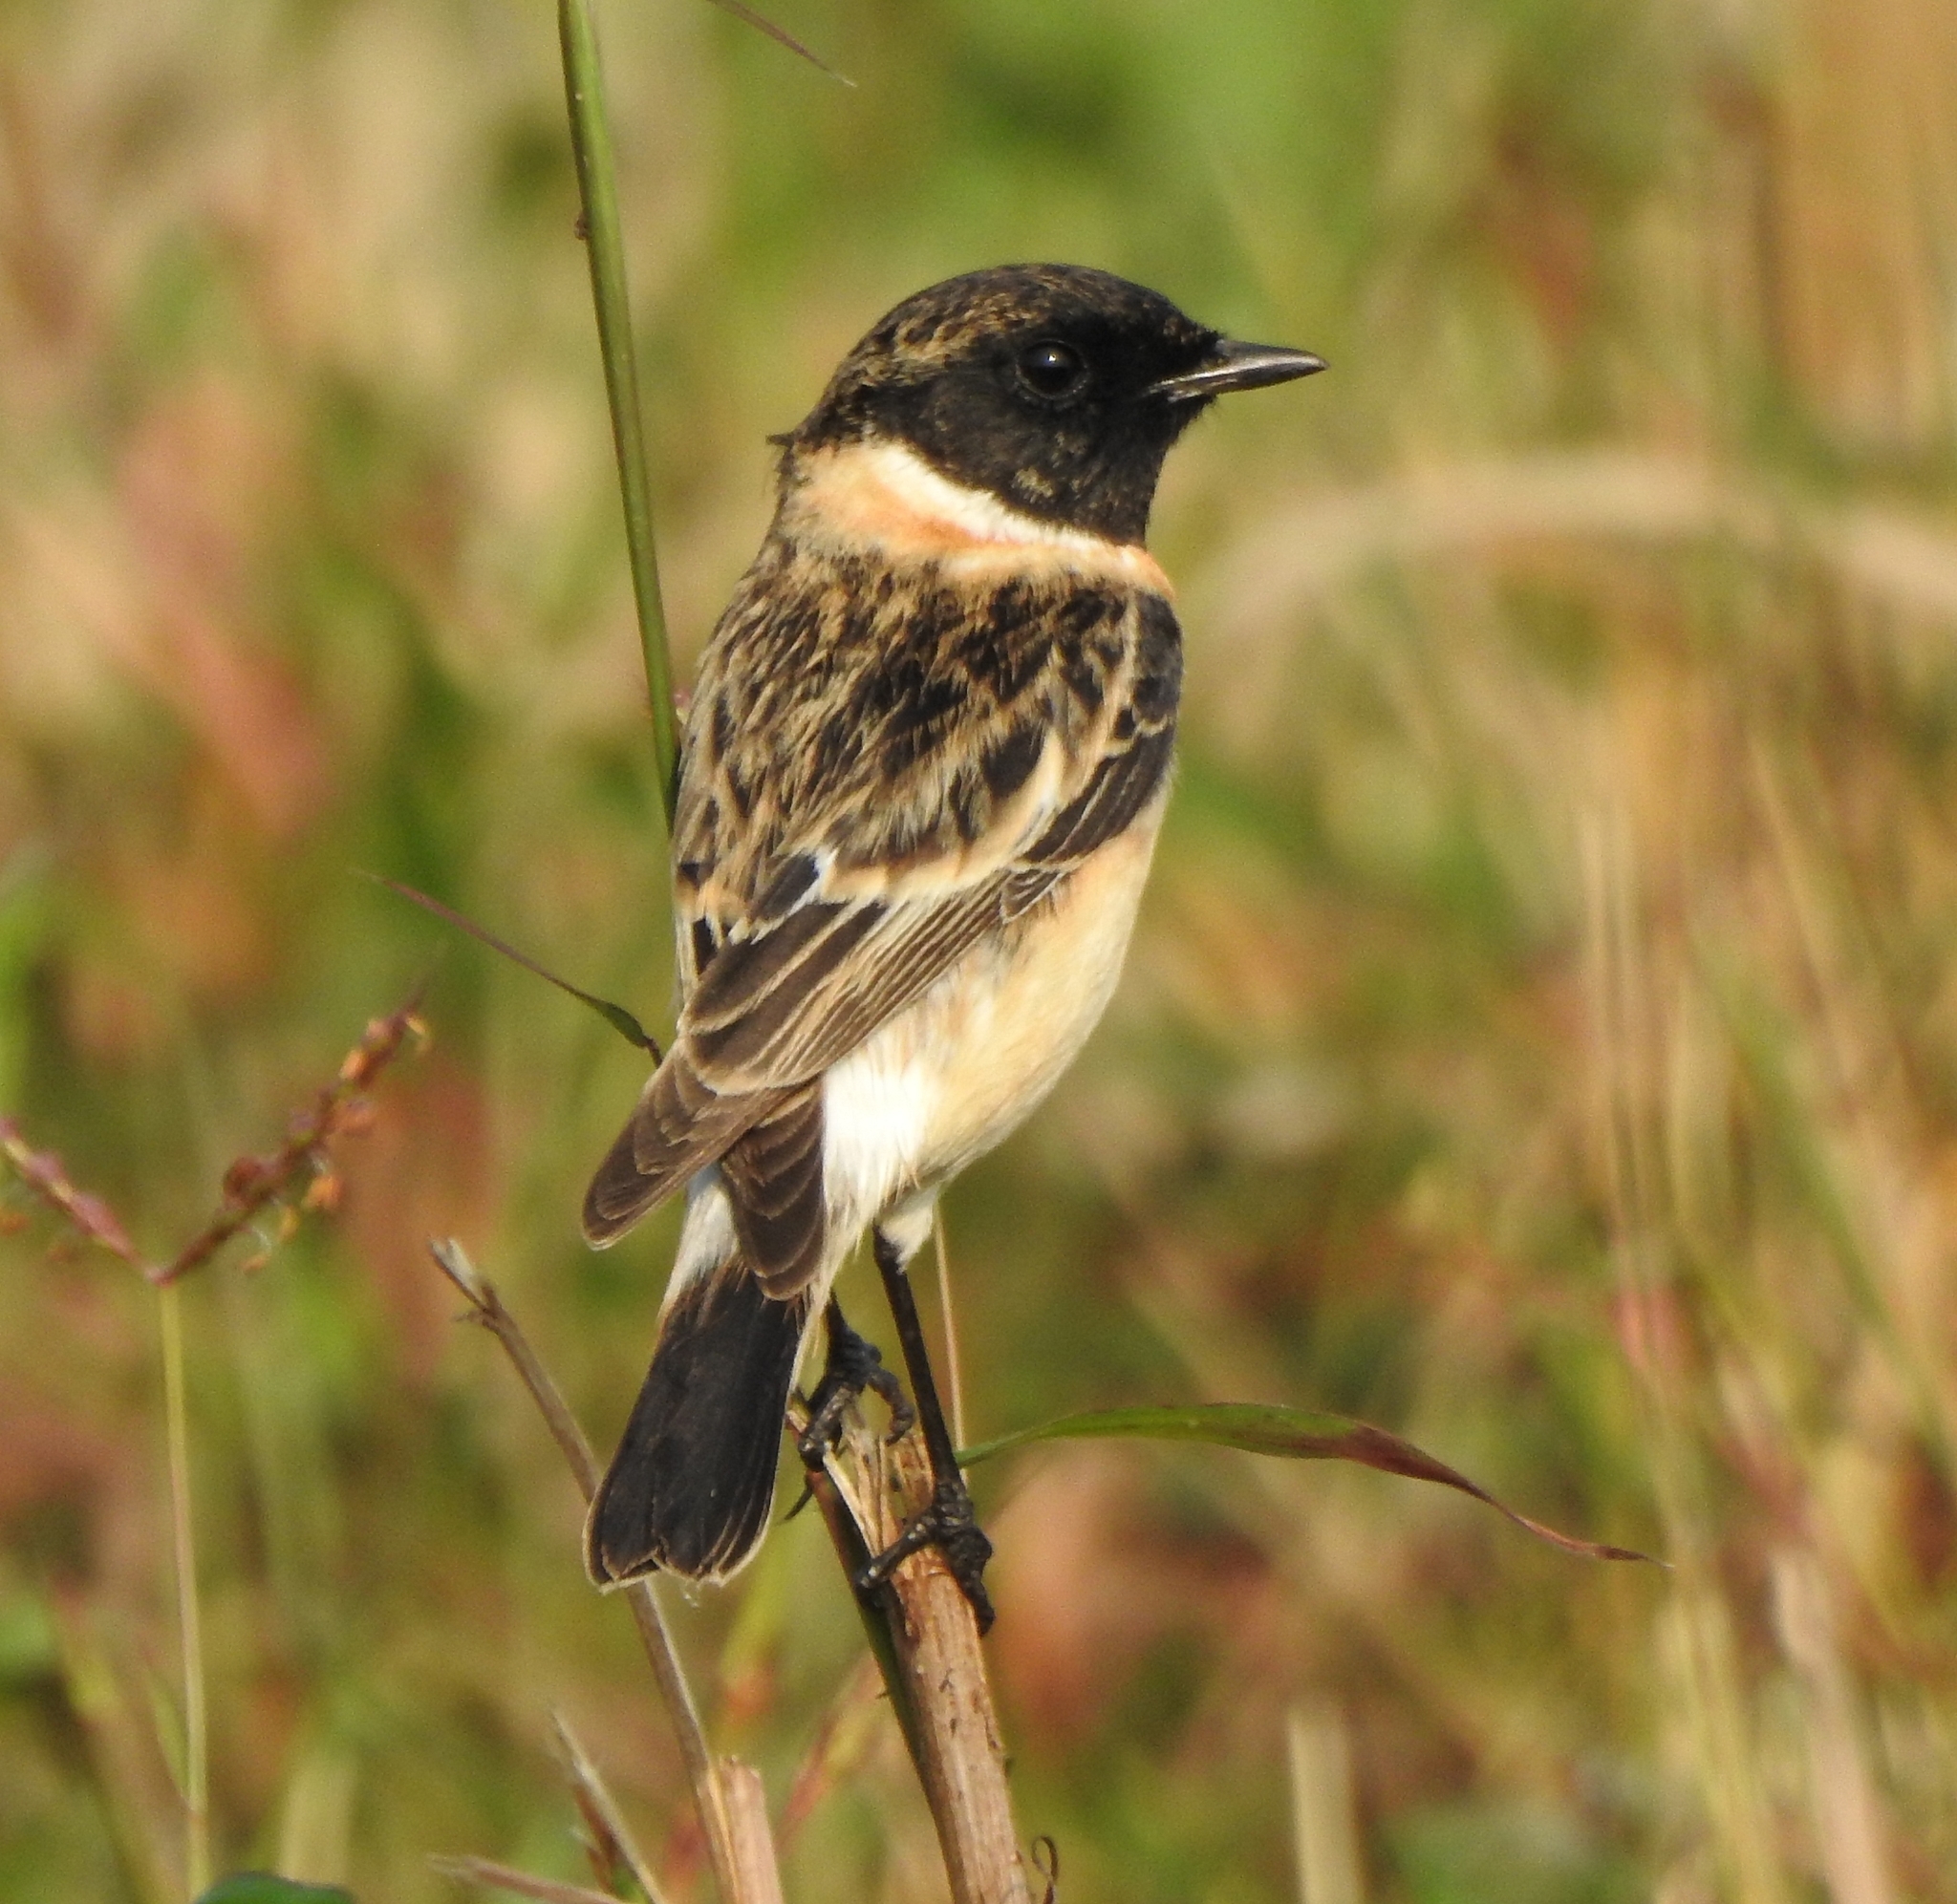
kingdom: Animalia
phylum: Chordata
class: Aves
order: Passeriformes
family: Muscicapidae
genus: Saxicola
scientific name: Saxicola maurus
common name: Siberian stonechat
